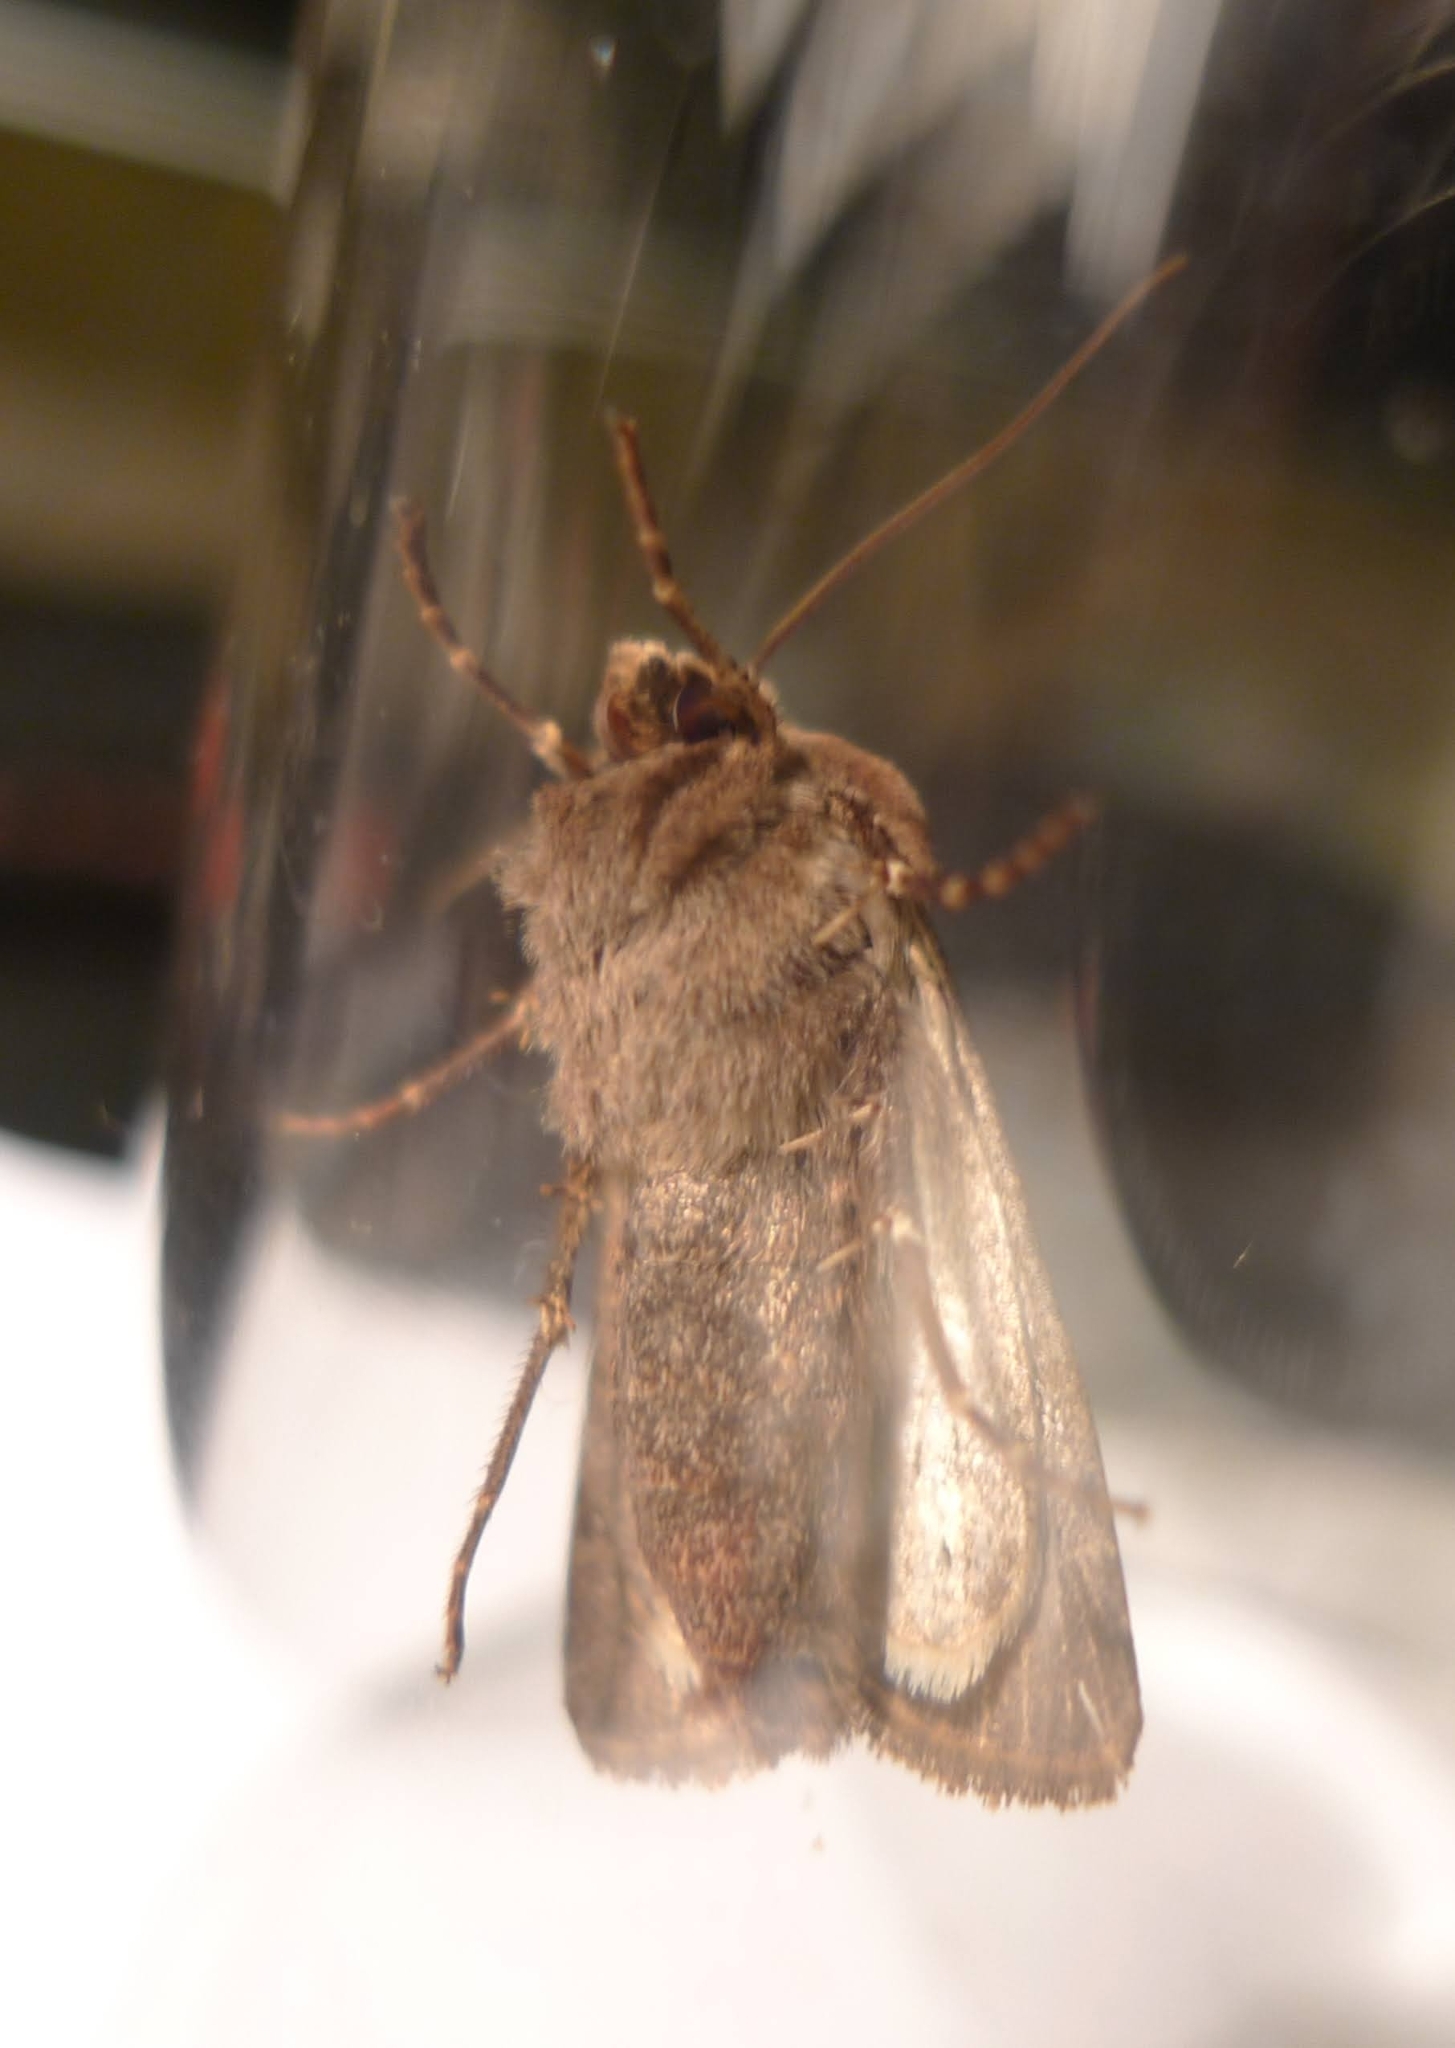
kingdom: Animalia
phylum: Arthropoda
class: Insecta
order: Lepidoptera
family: Noctuidae
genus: Agrotis
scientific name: Agrotis exclamationis
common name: Heart and dart
